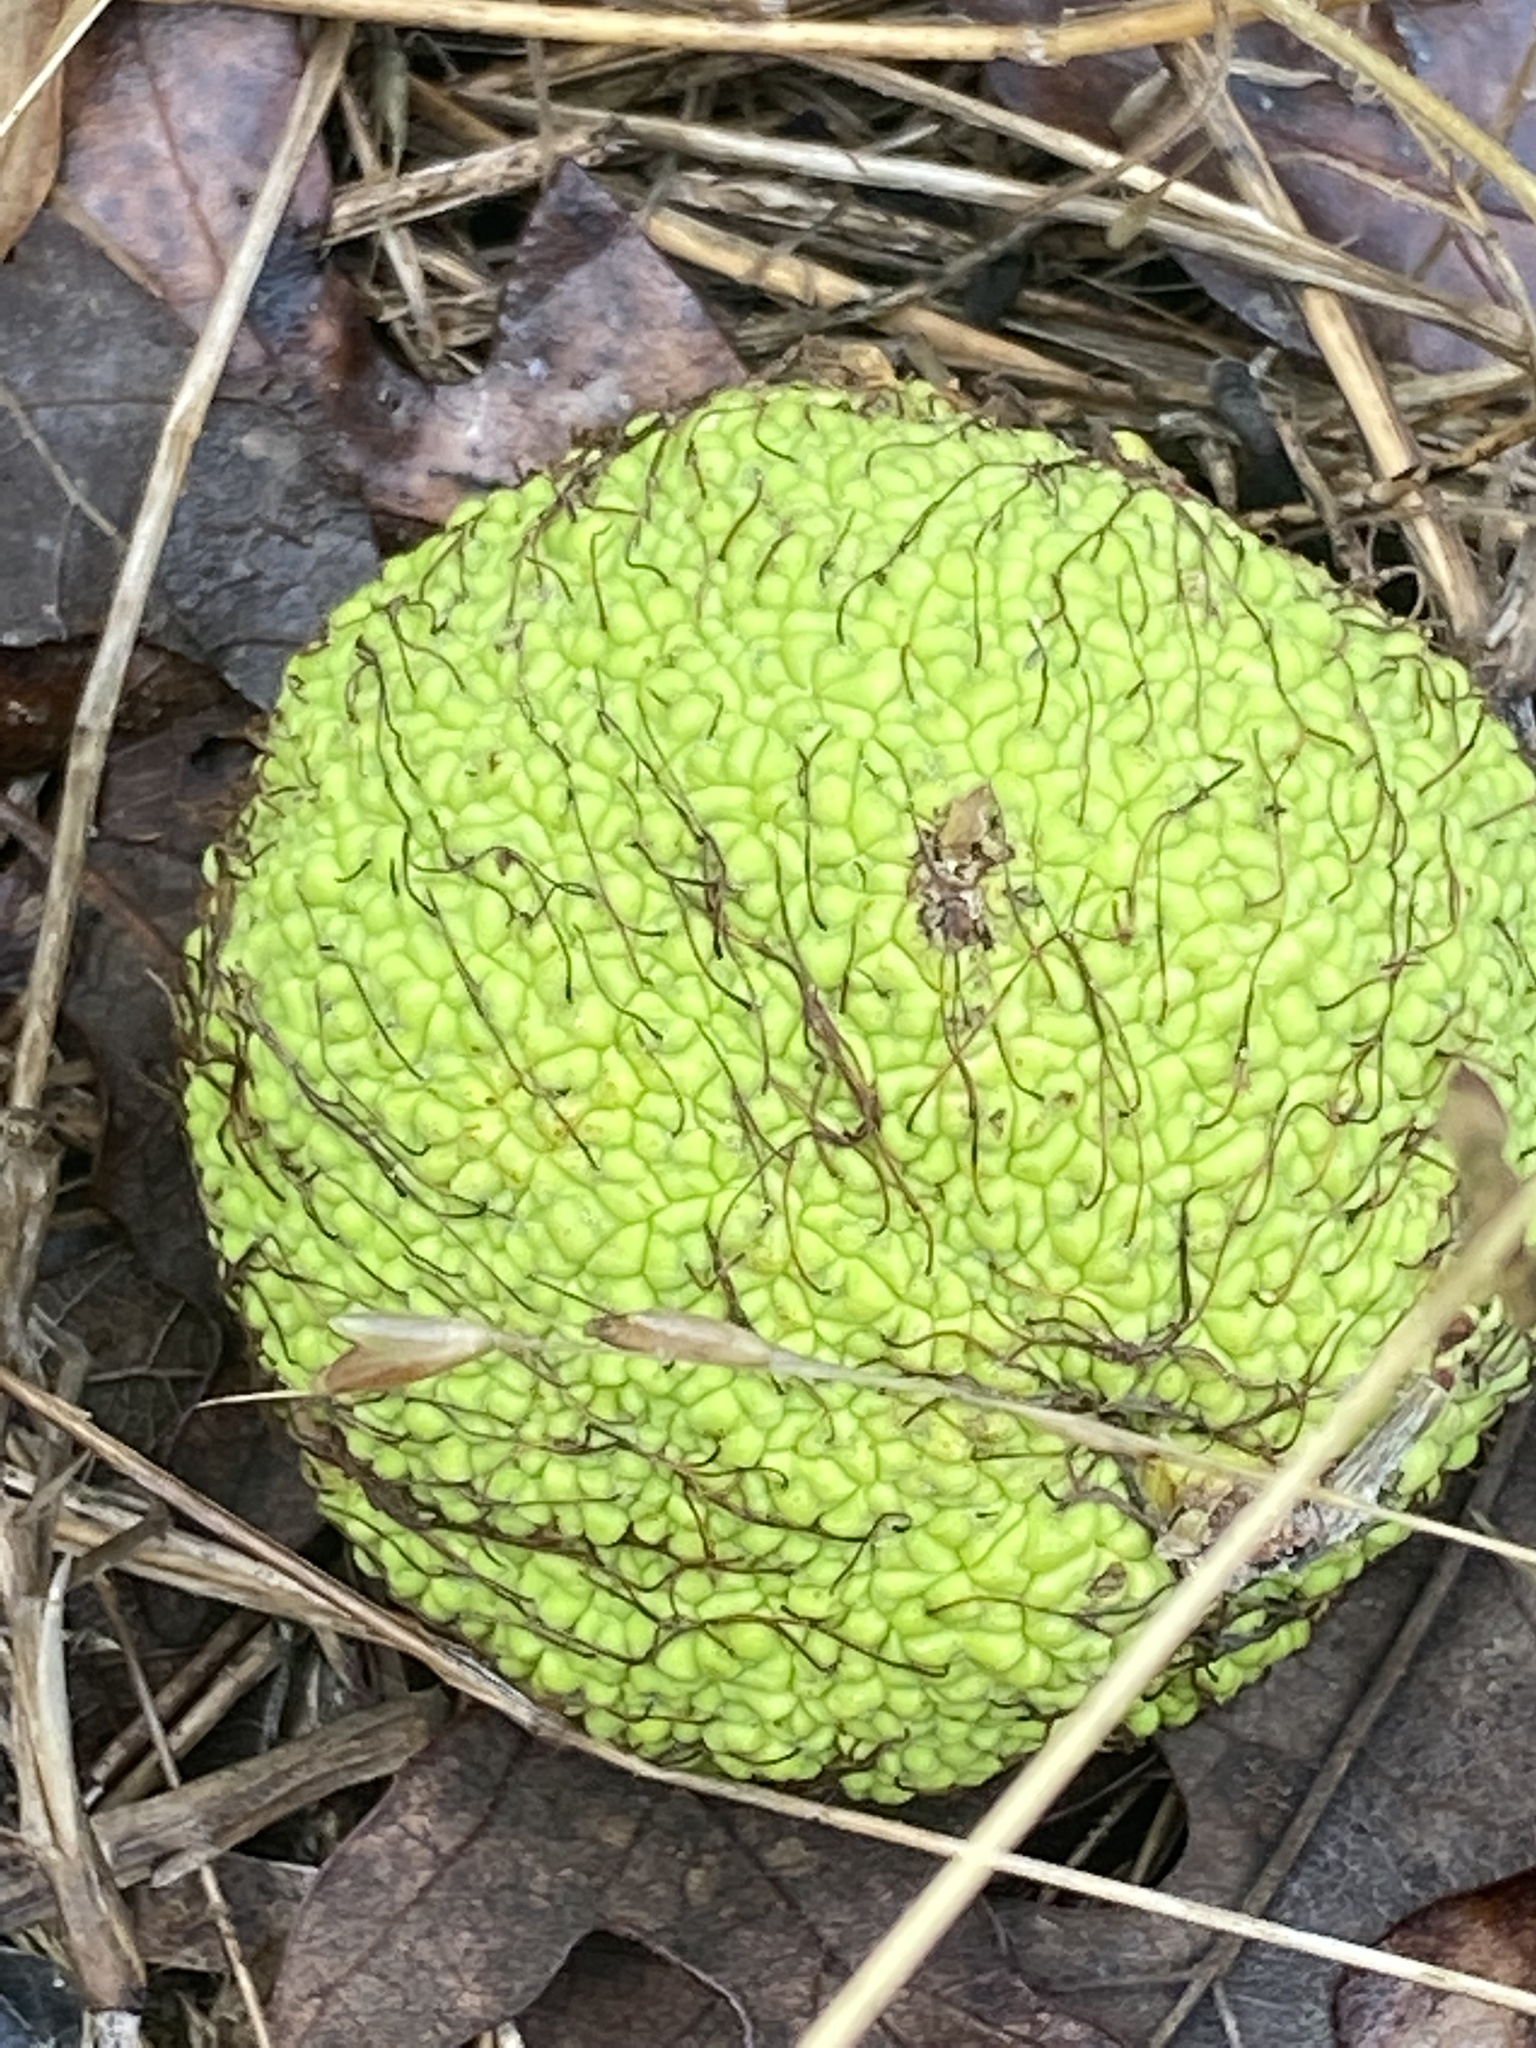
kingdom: Plantae
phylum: Tracheophyta
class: Magnoliopsida
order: Rosales
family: Moraceae
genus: Maclura
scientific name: Maclura pomifera
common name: Osage-orange
